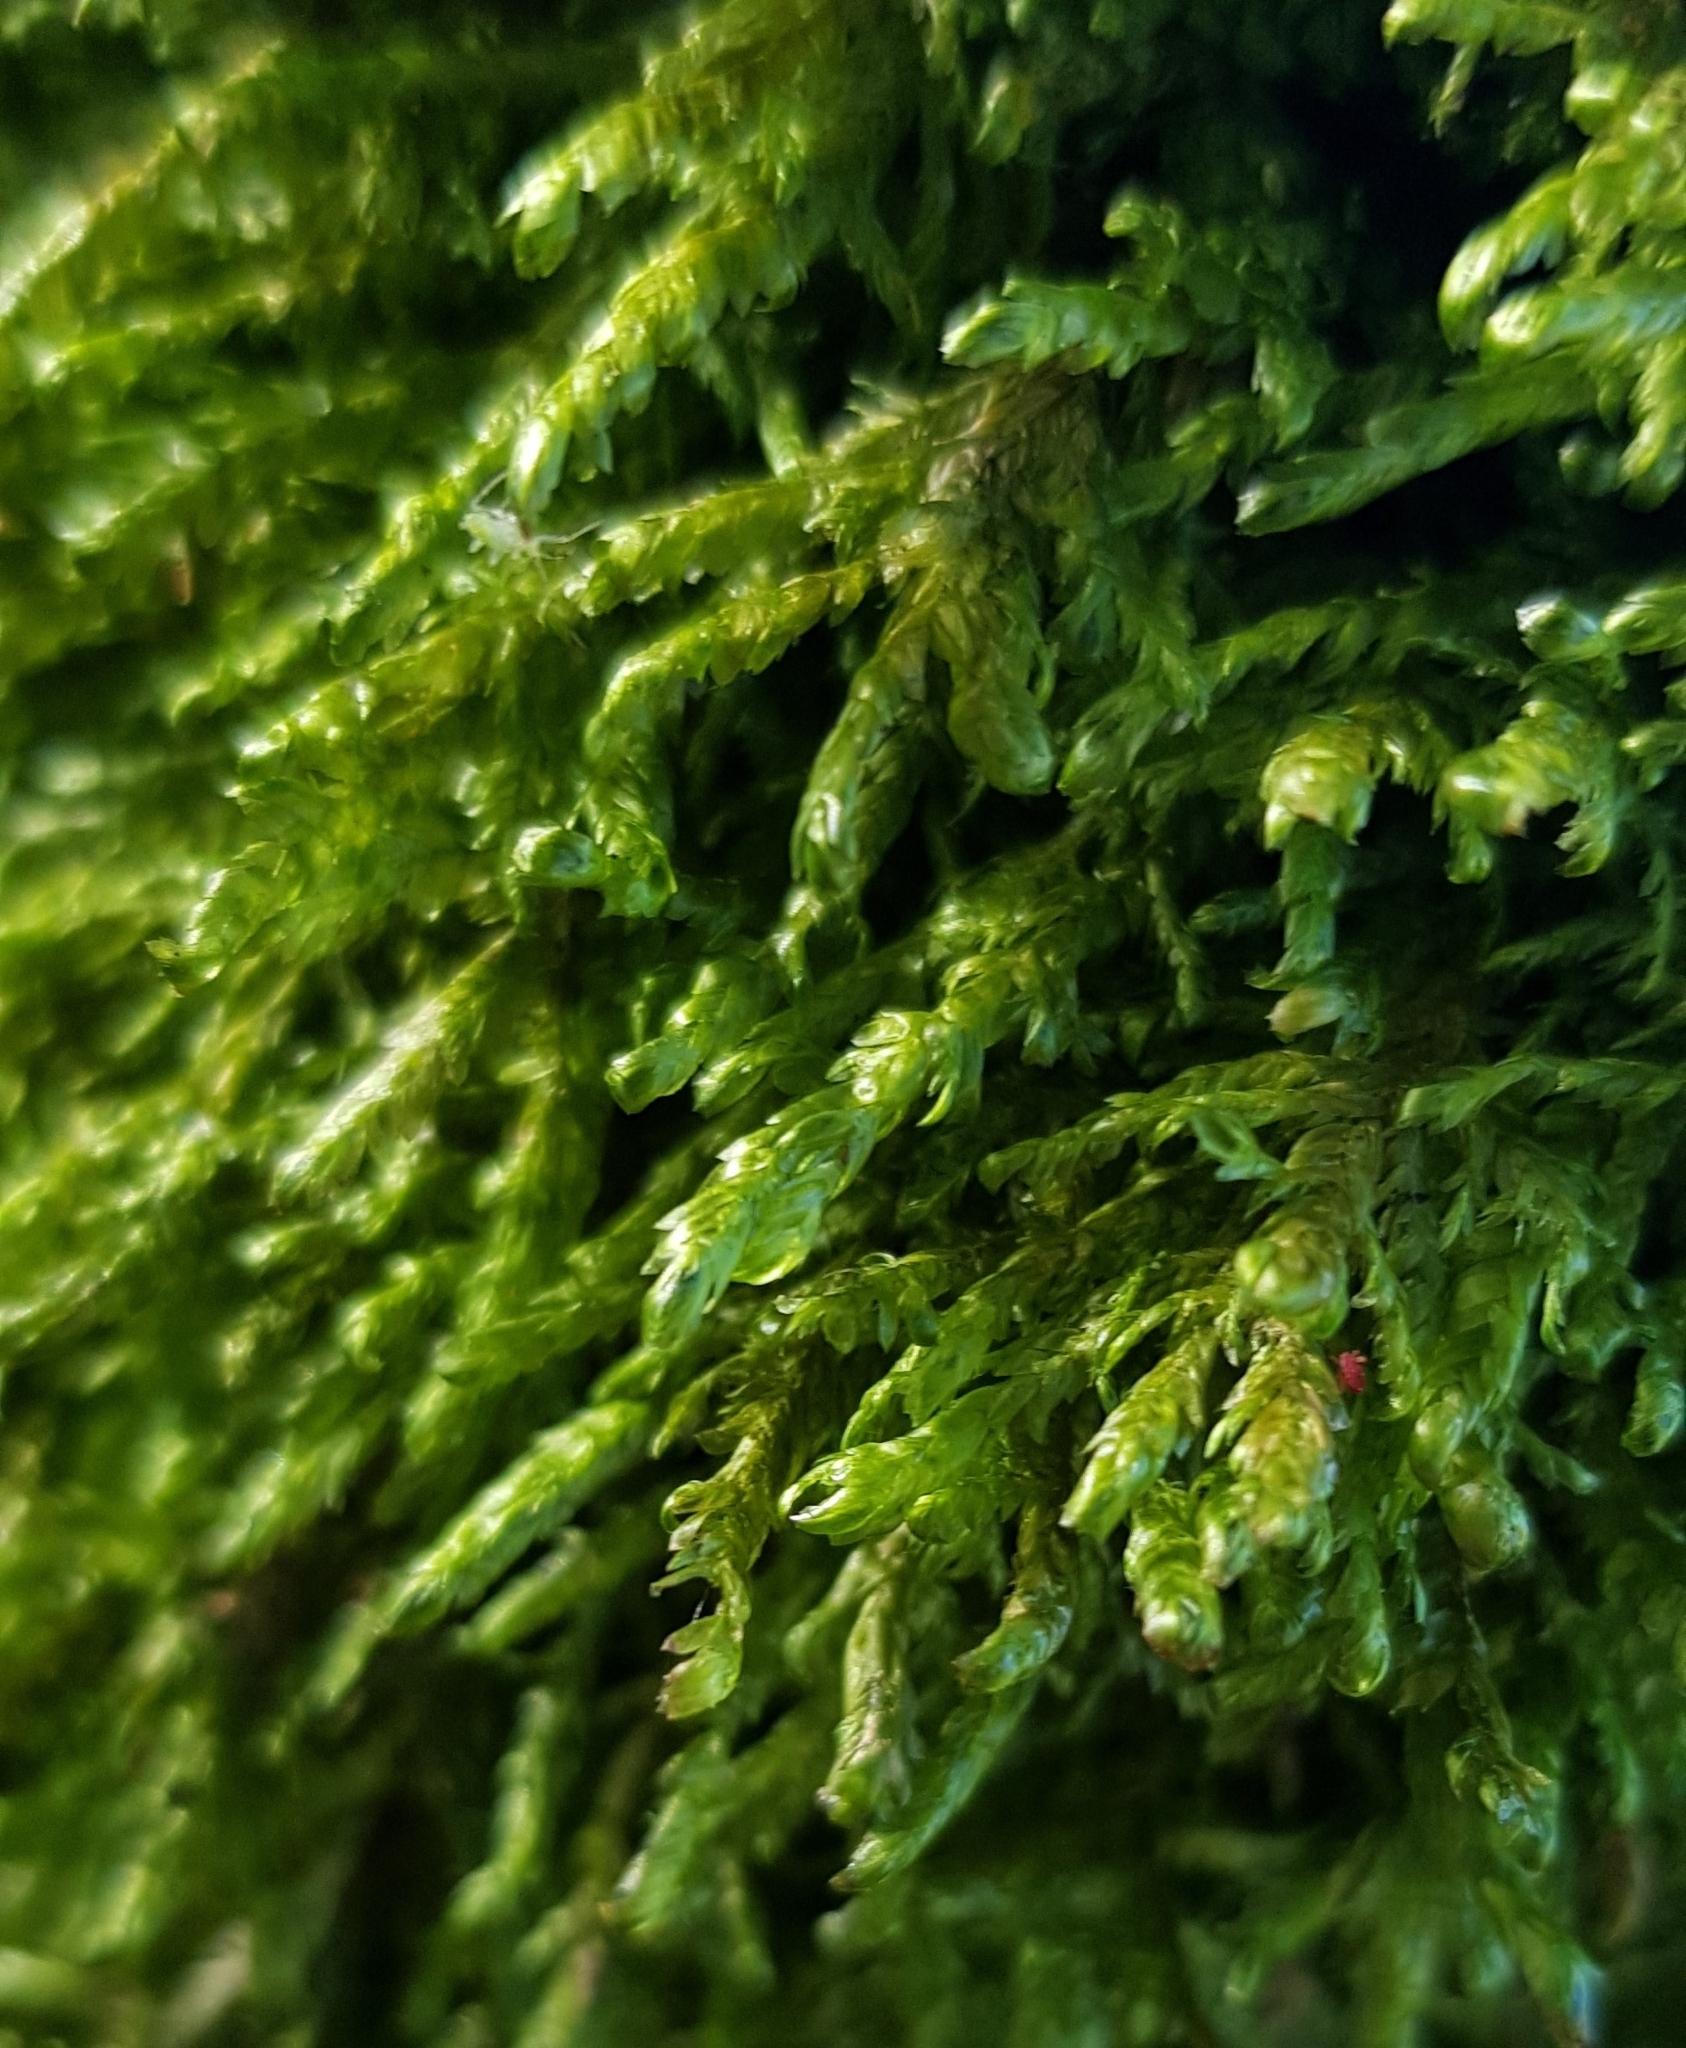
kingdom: Plantae
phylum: Bryophyta
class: Bryopsida
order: Hypnales
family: Neckeraceae
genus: Alleniella
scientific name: Alleniella complanata
